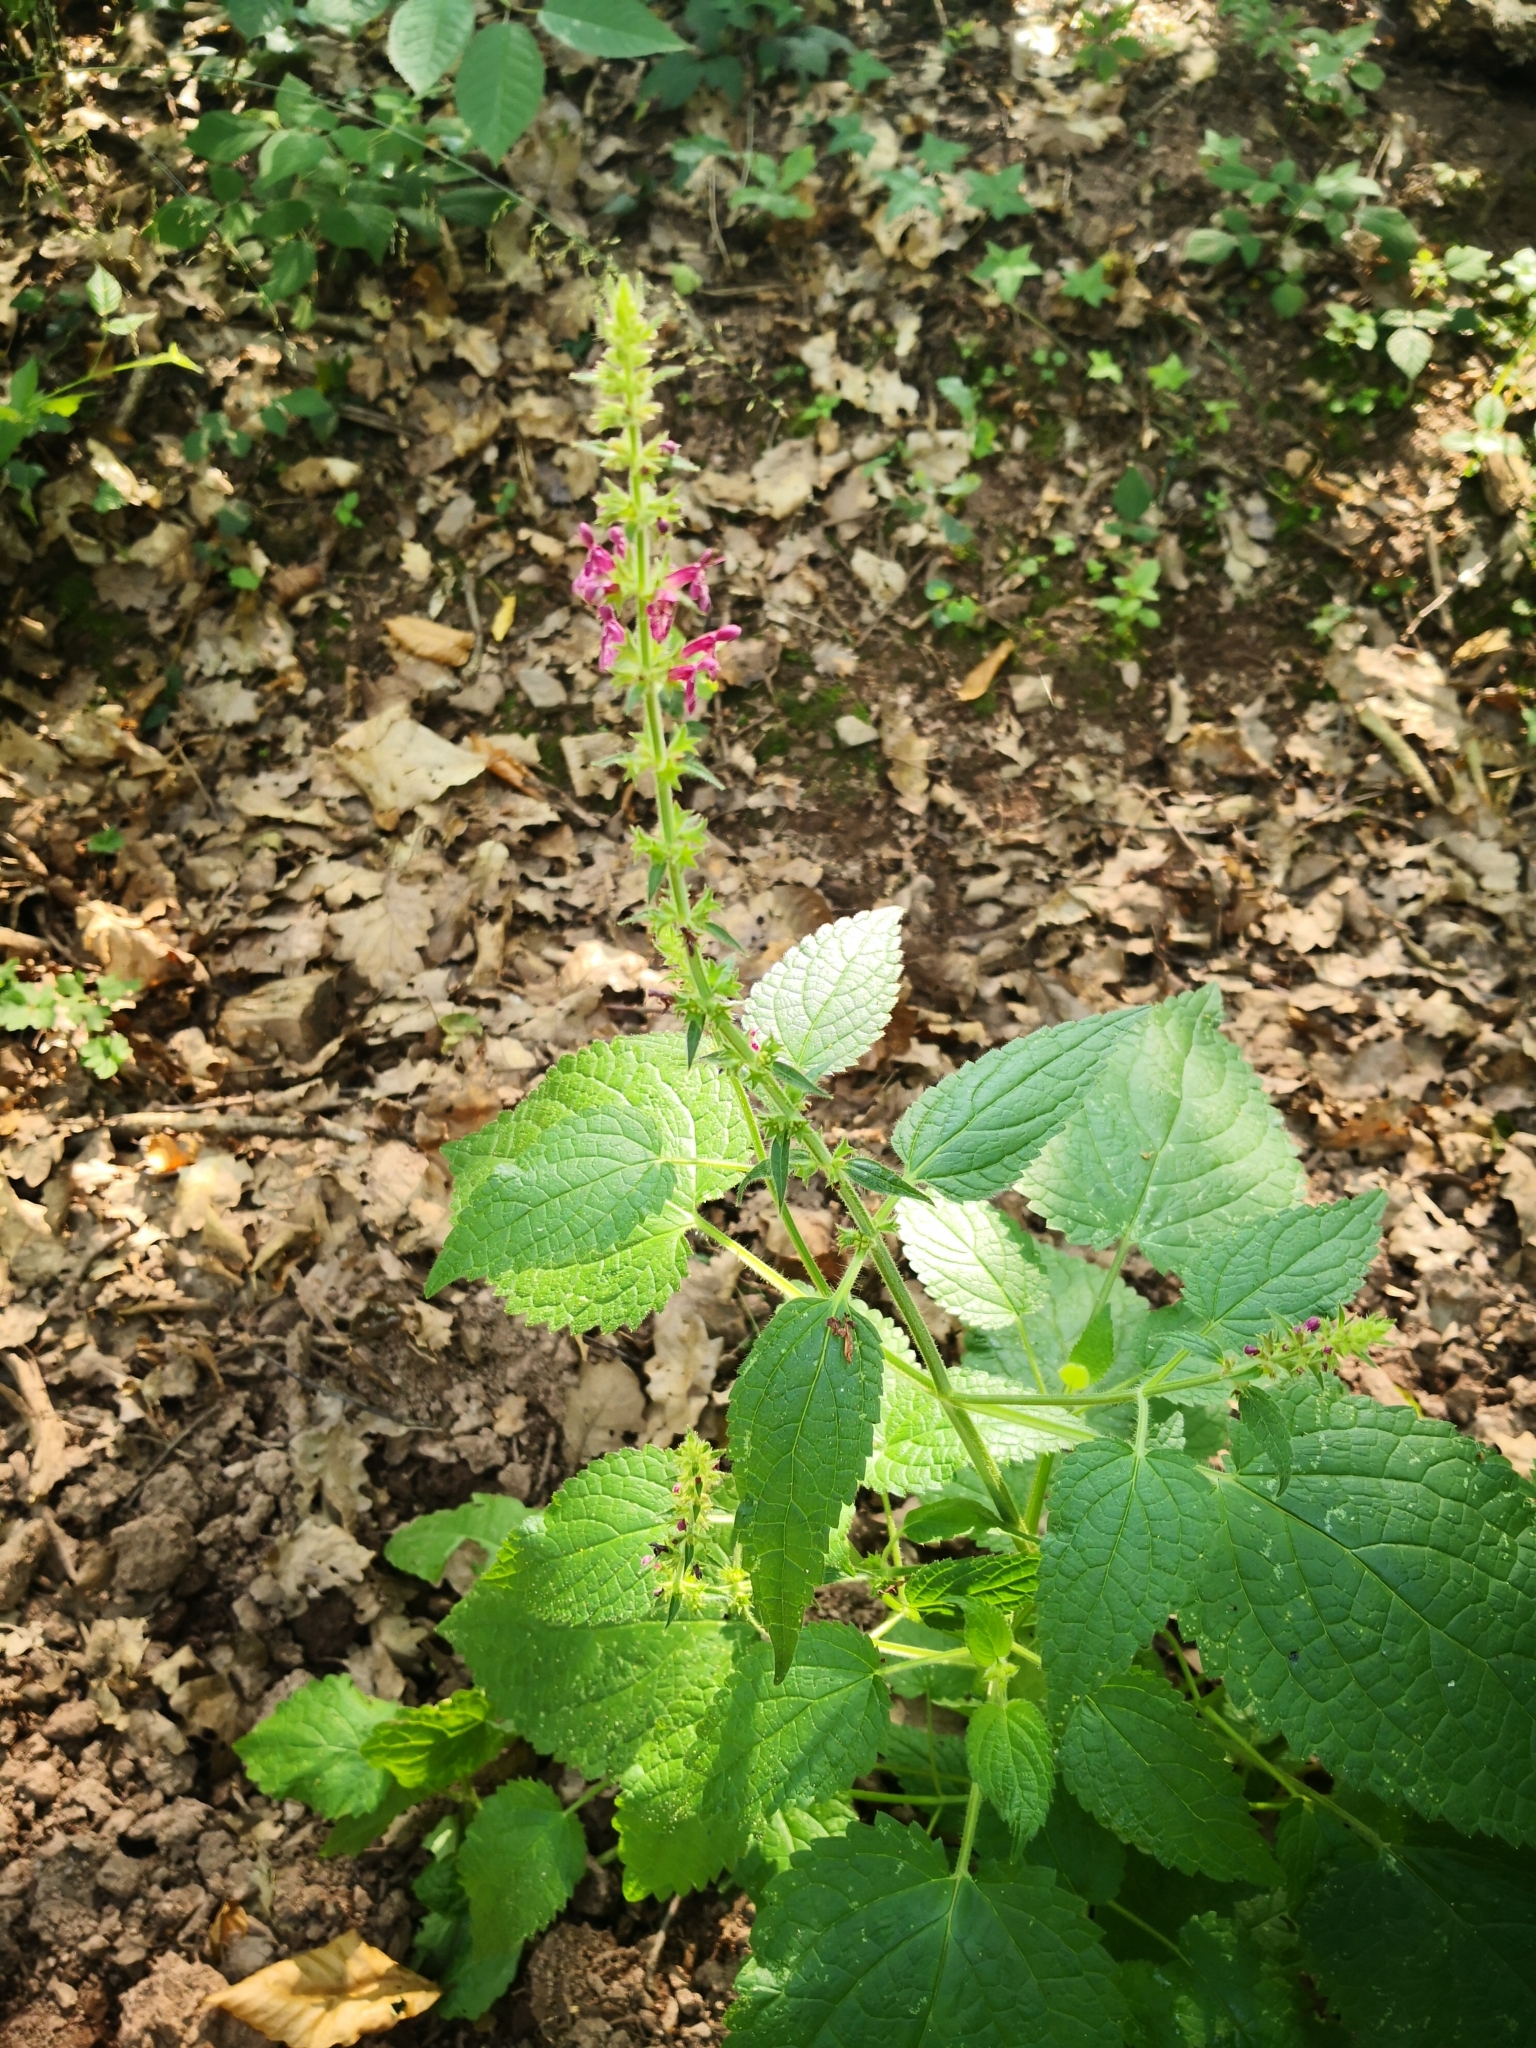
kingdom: Plantae
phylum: Tracheophyta
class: Magnoliopsida
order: Lamiales
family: Lamiaceae
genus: Stachys
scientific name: Stachys sylvatica
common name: Hedge woundwort
